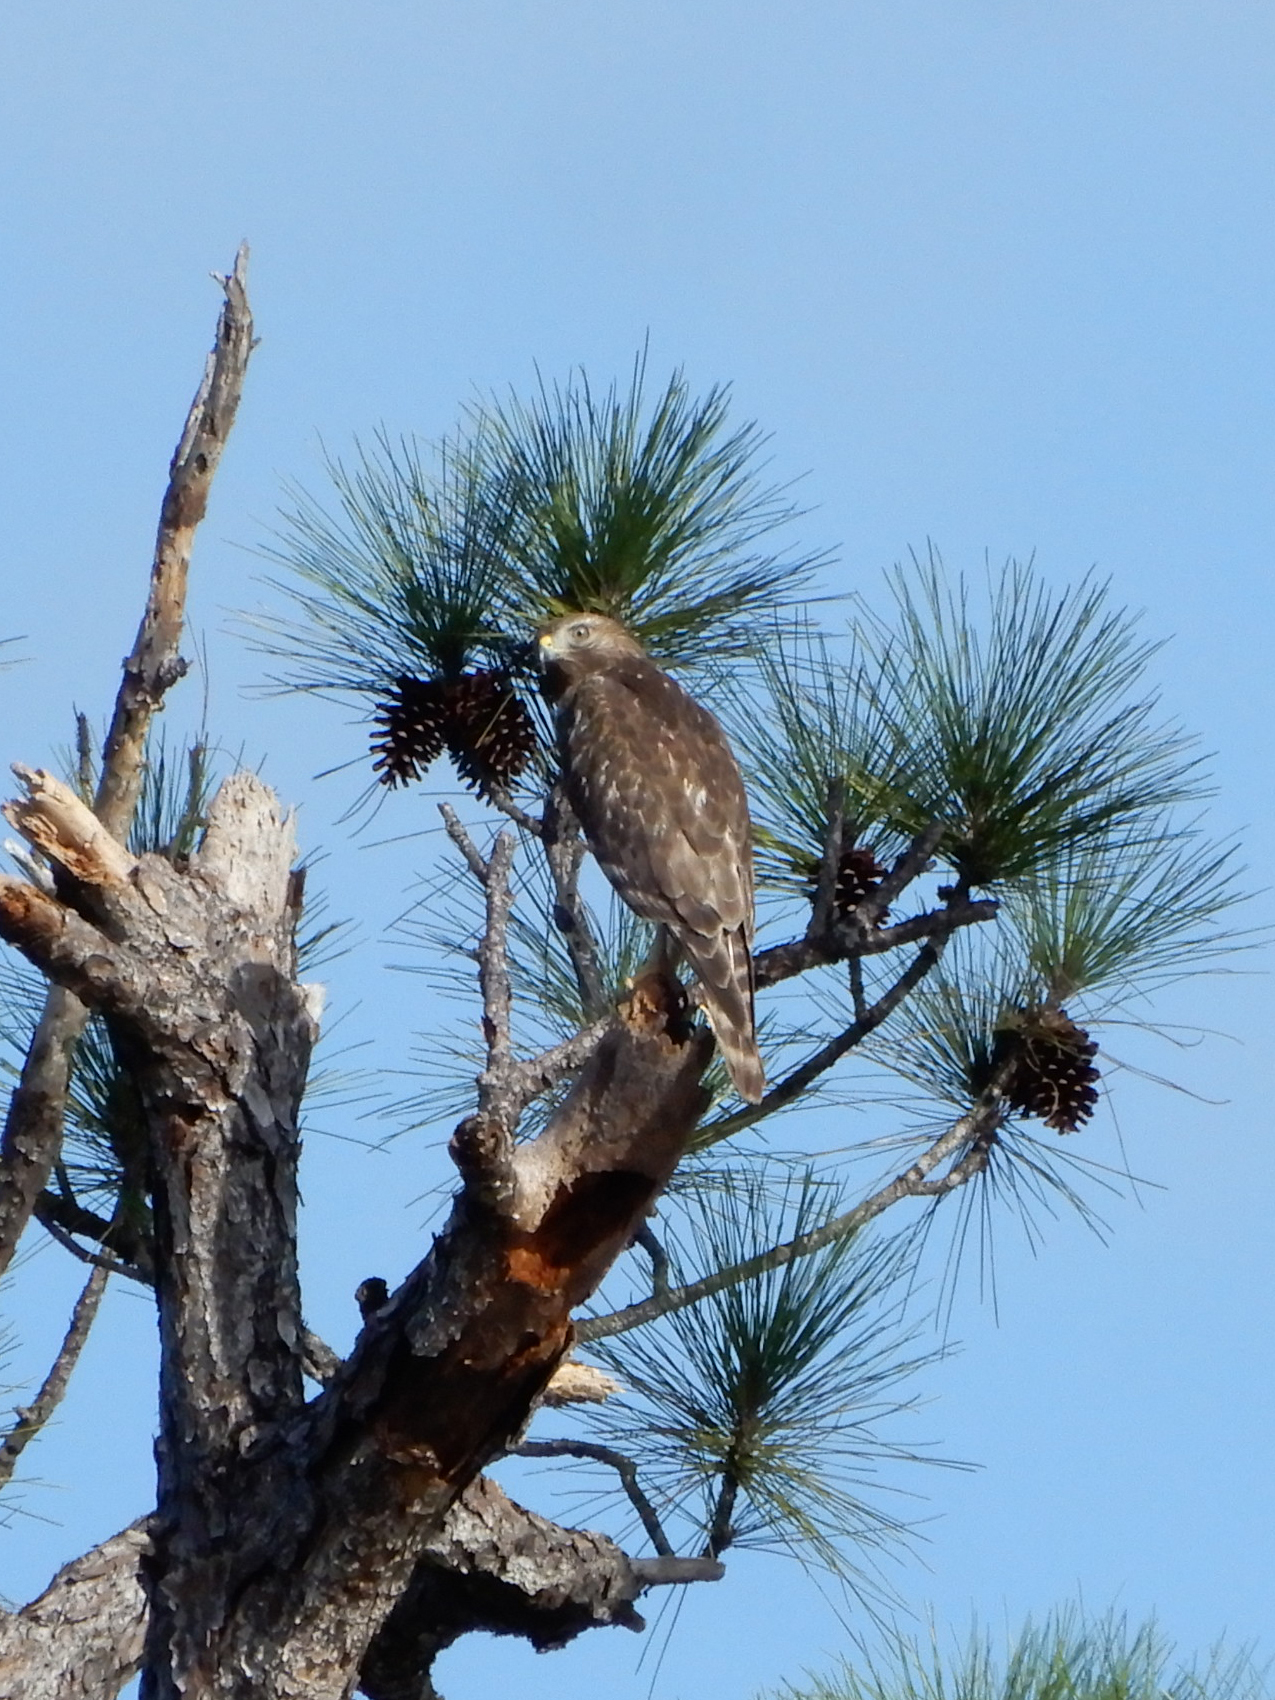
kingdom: Animalia
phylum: Chordata
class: Aves
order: Accipitriformes
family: Accipitridae
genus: Buteo
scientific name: Buteo lineatus
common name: Red-shouldered hawk
